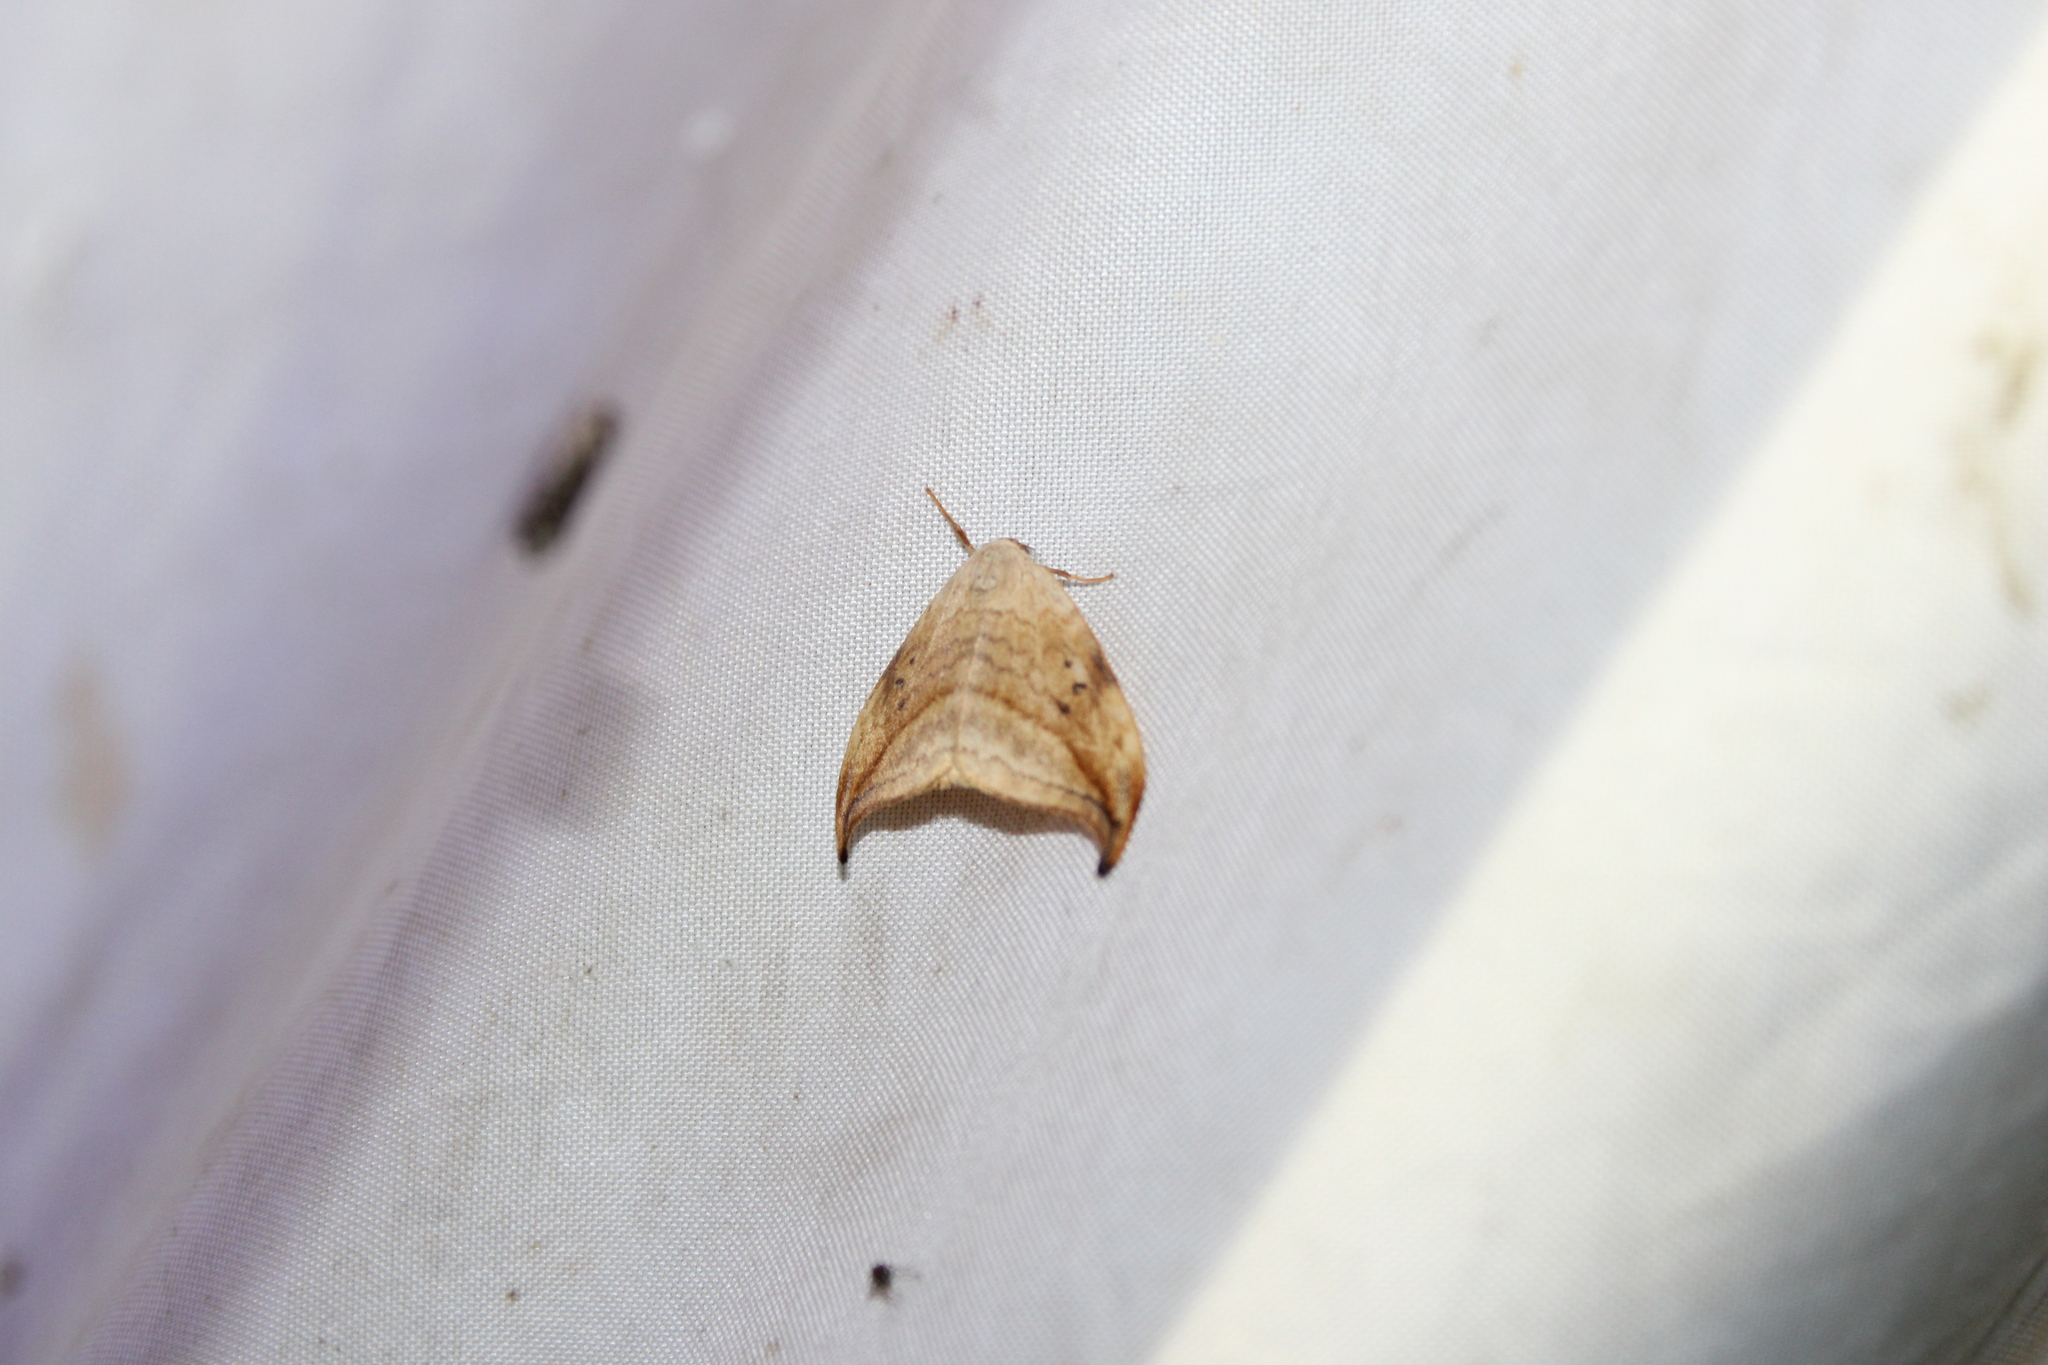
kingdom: Animalia
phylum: Arthropoda
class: Insecta
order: Lepidoptera
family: Drepanidae
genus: Drepana
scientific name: Drepana arcuata
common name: Arched hooktip moth
